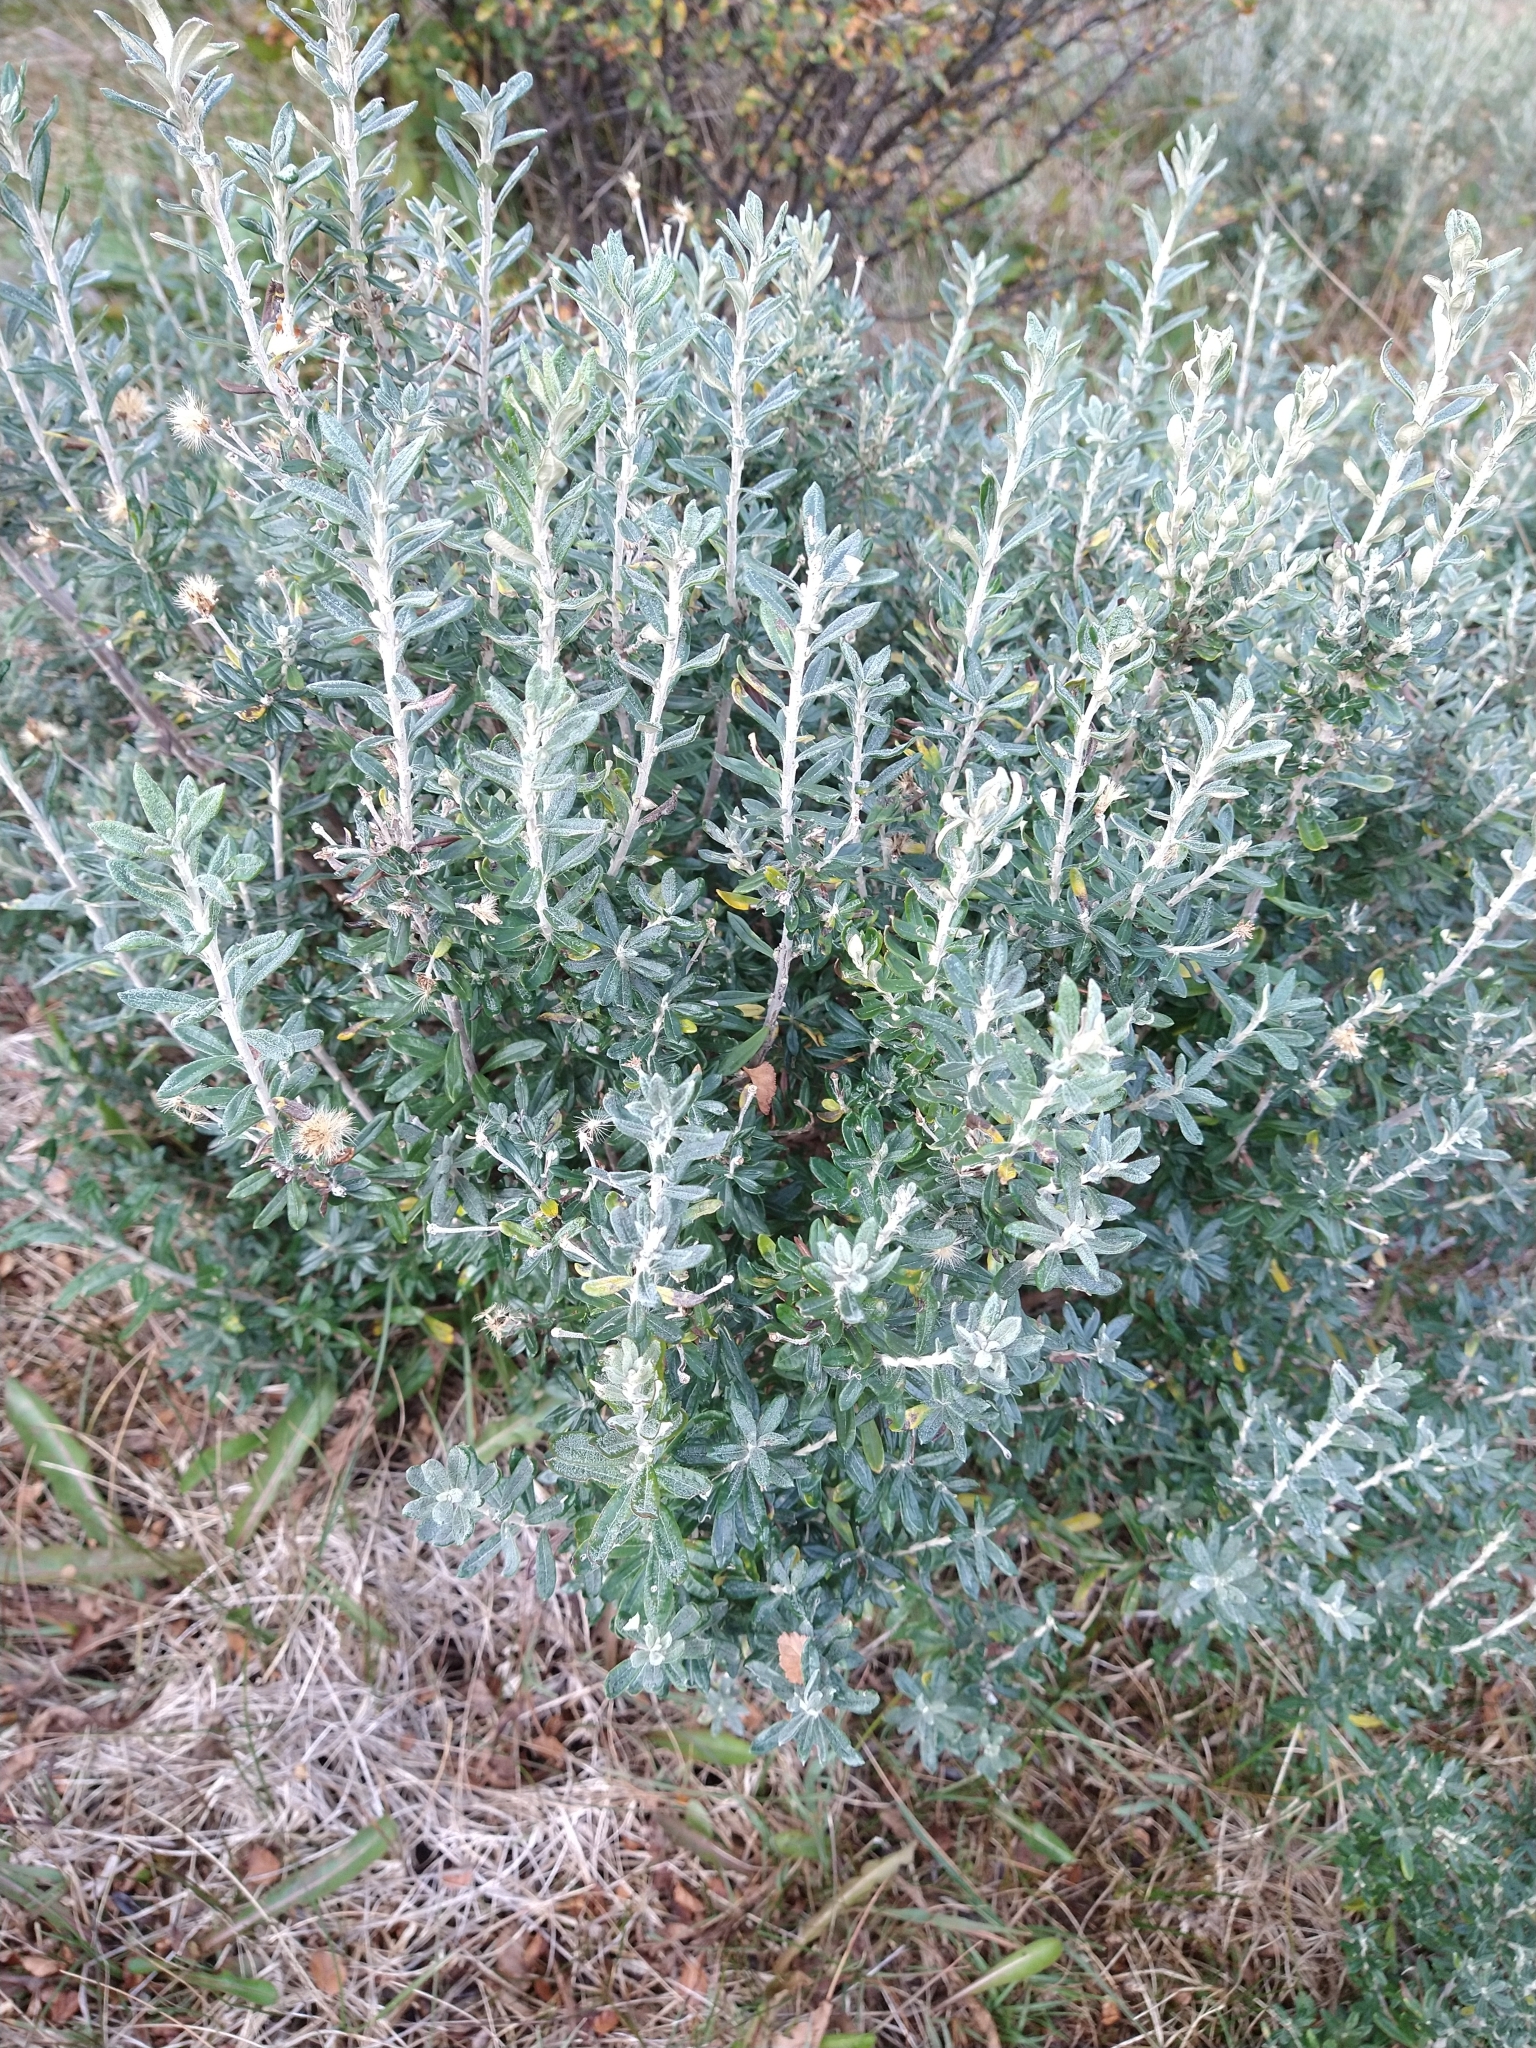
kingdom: Plantae
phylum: Tracheophyta
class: Magnoliopsida
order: Asterales
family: Asteraceae
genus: Chiliotrichum
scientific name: Chiliotrichum diffusum
